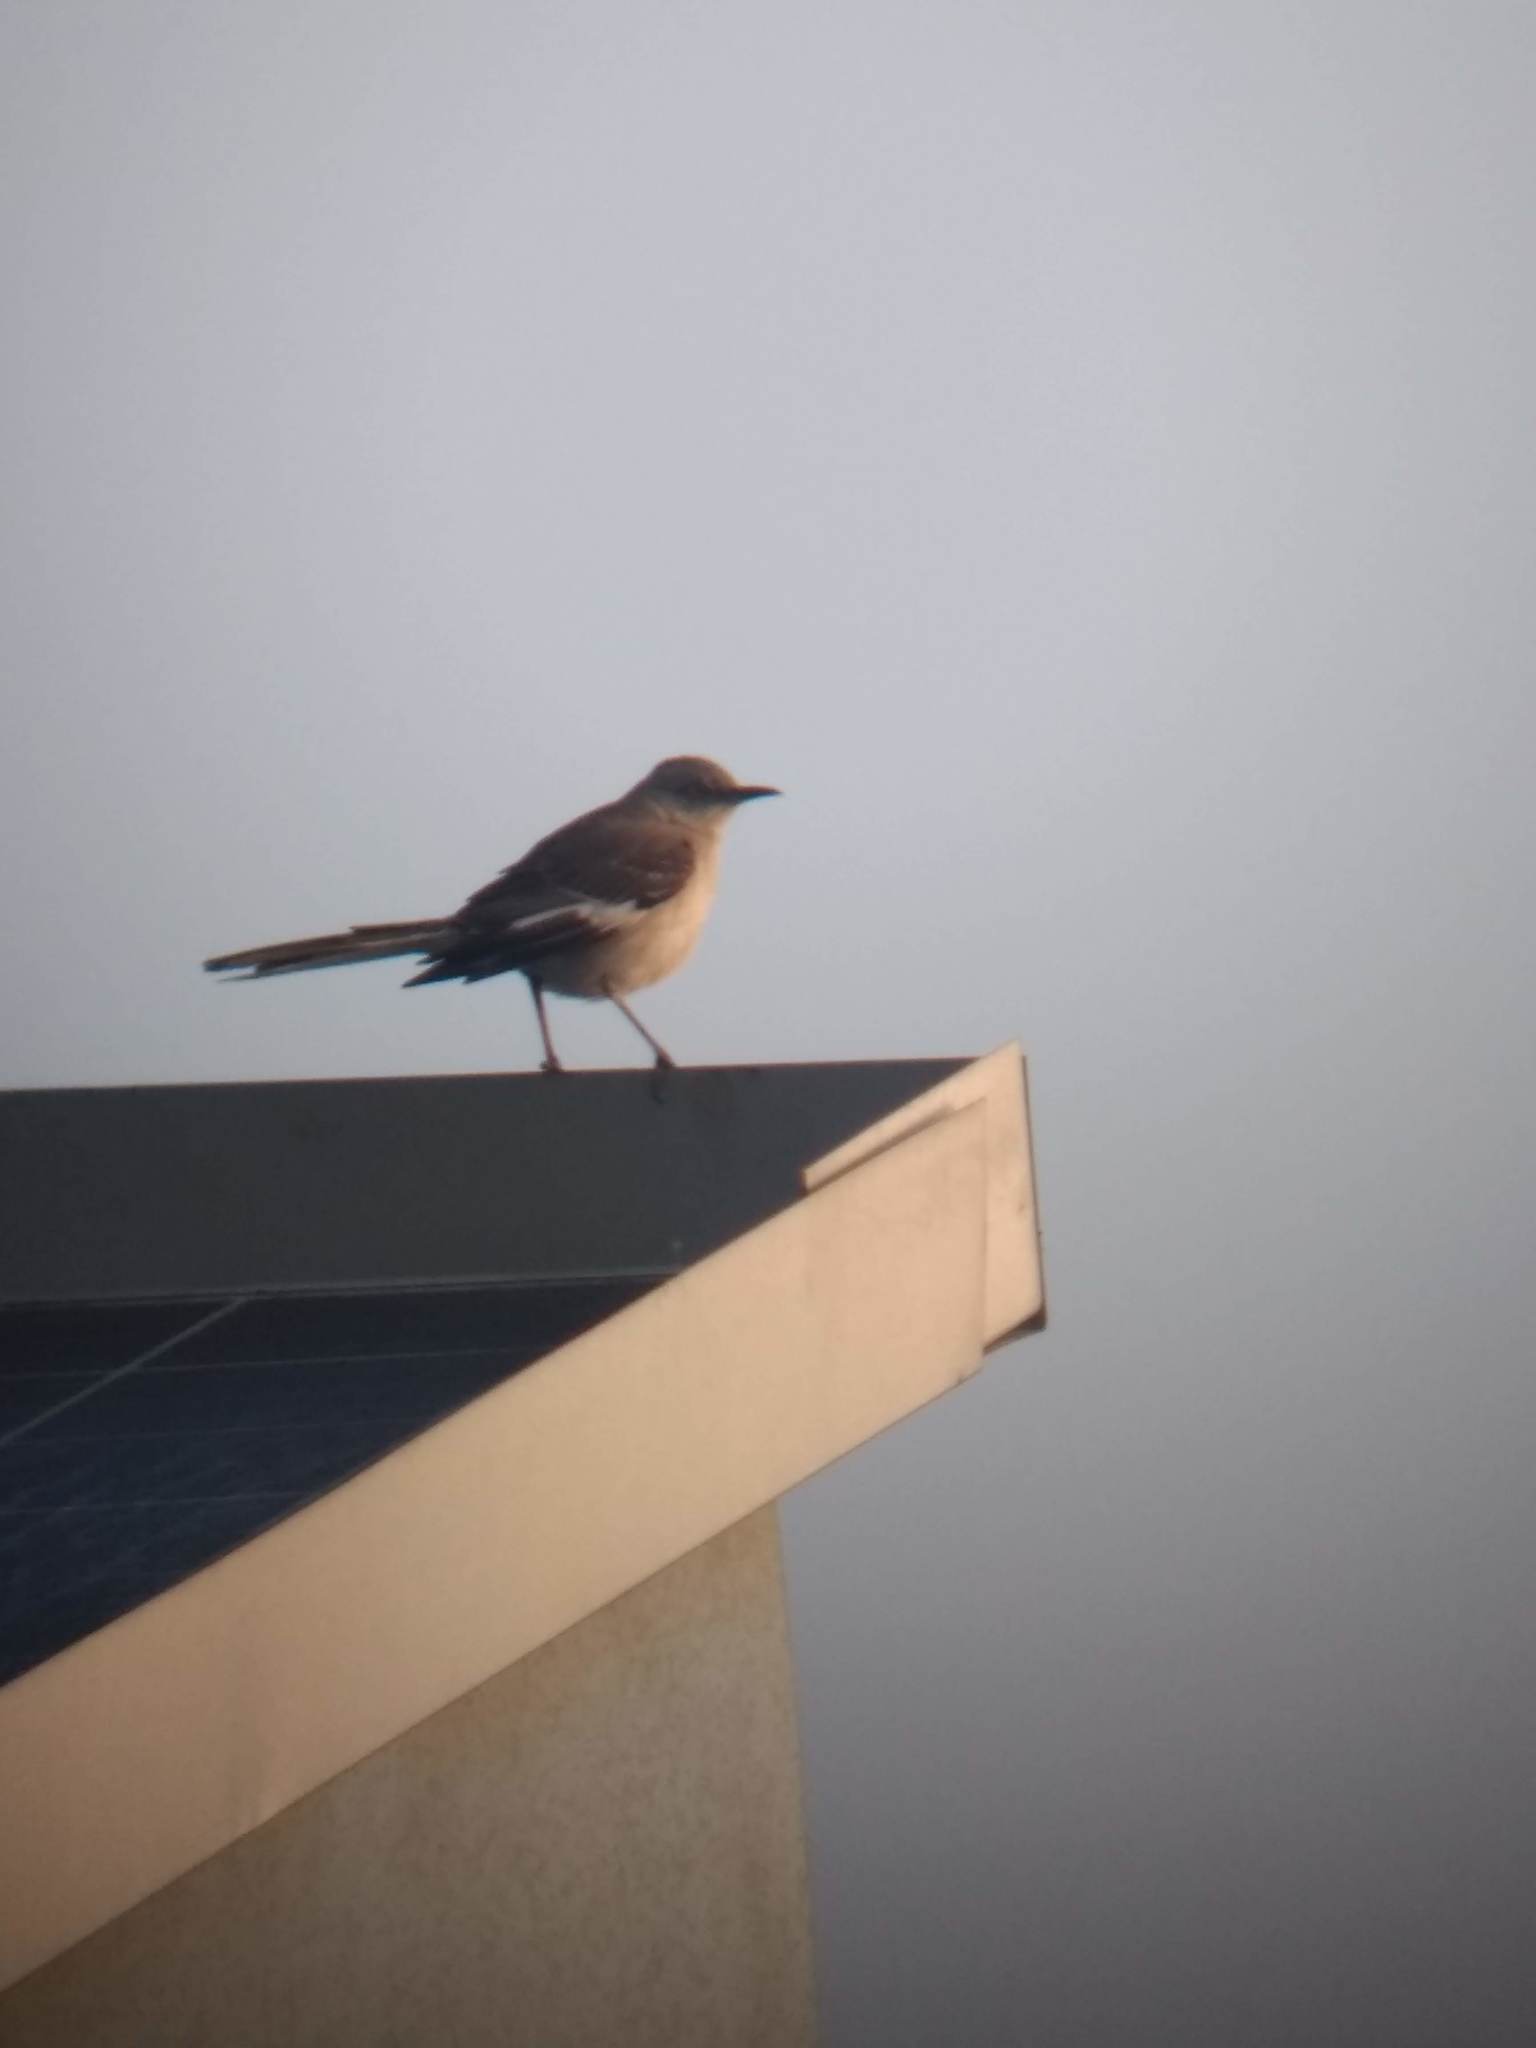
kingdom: Animalia
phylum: Chordata
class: Aves
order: Passeriformes
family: Mimidae
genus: Mimus
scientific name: Mimus polyglottos
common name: Northern mockingbird
